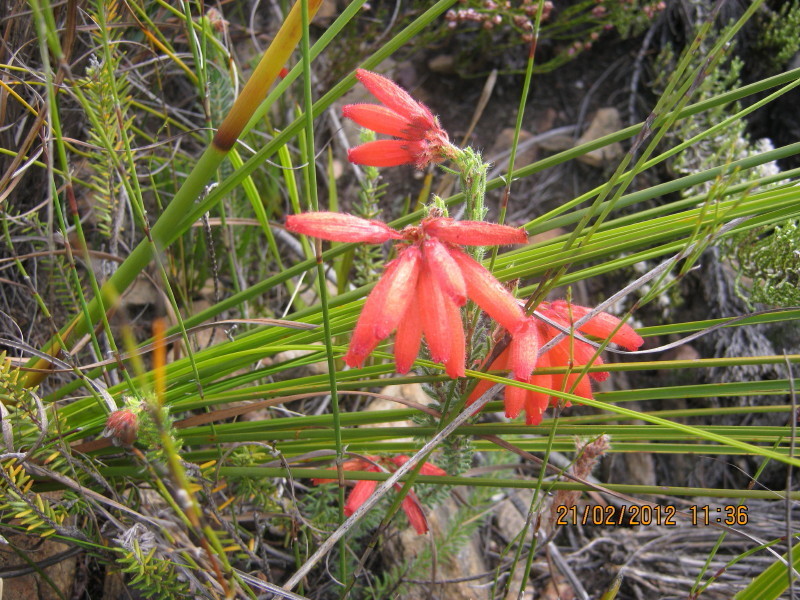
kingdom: Plantae
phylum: Tracheophyta
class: Magnoliopsida
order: Ericales
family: Ericaceae
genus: Erica
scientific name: Erica cerinthoides
